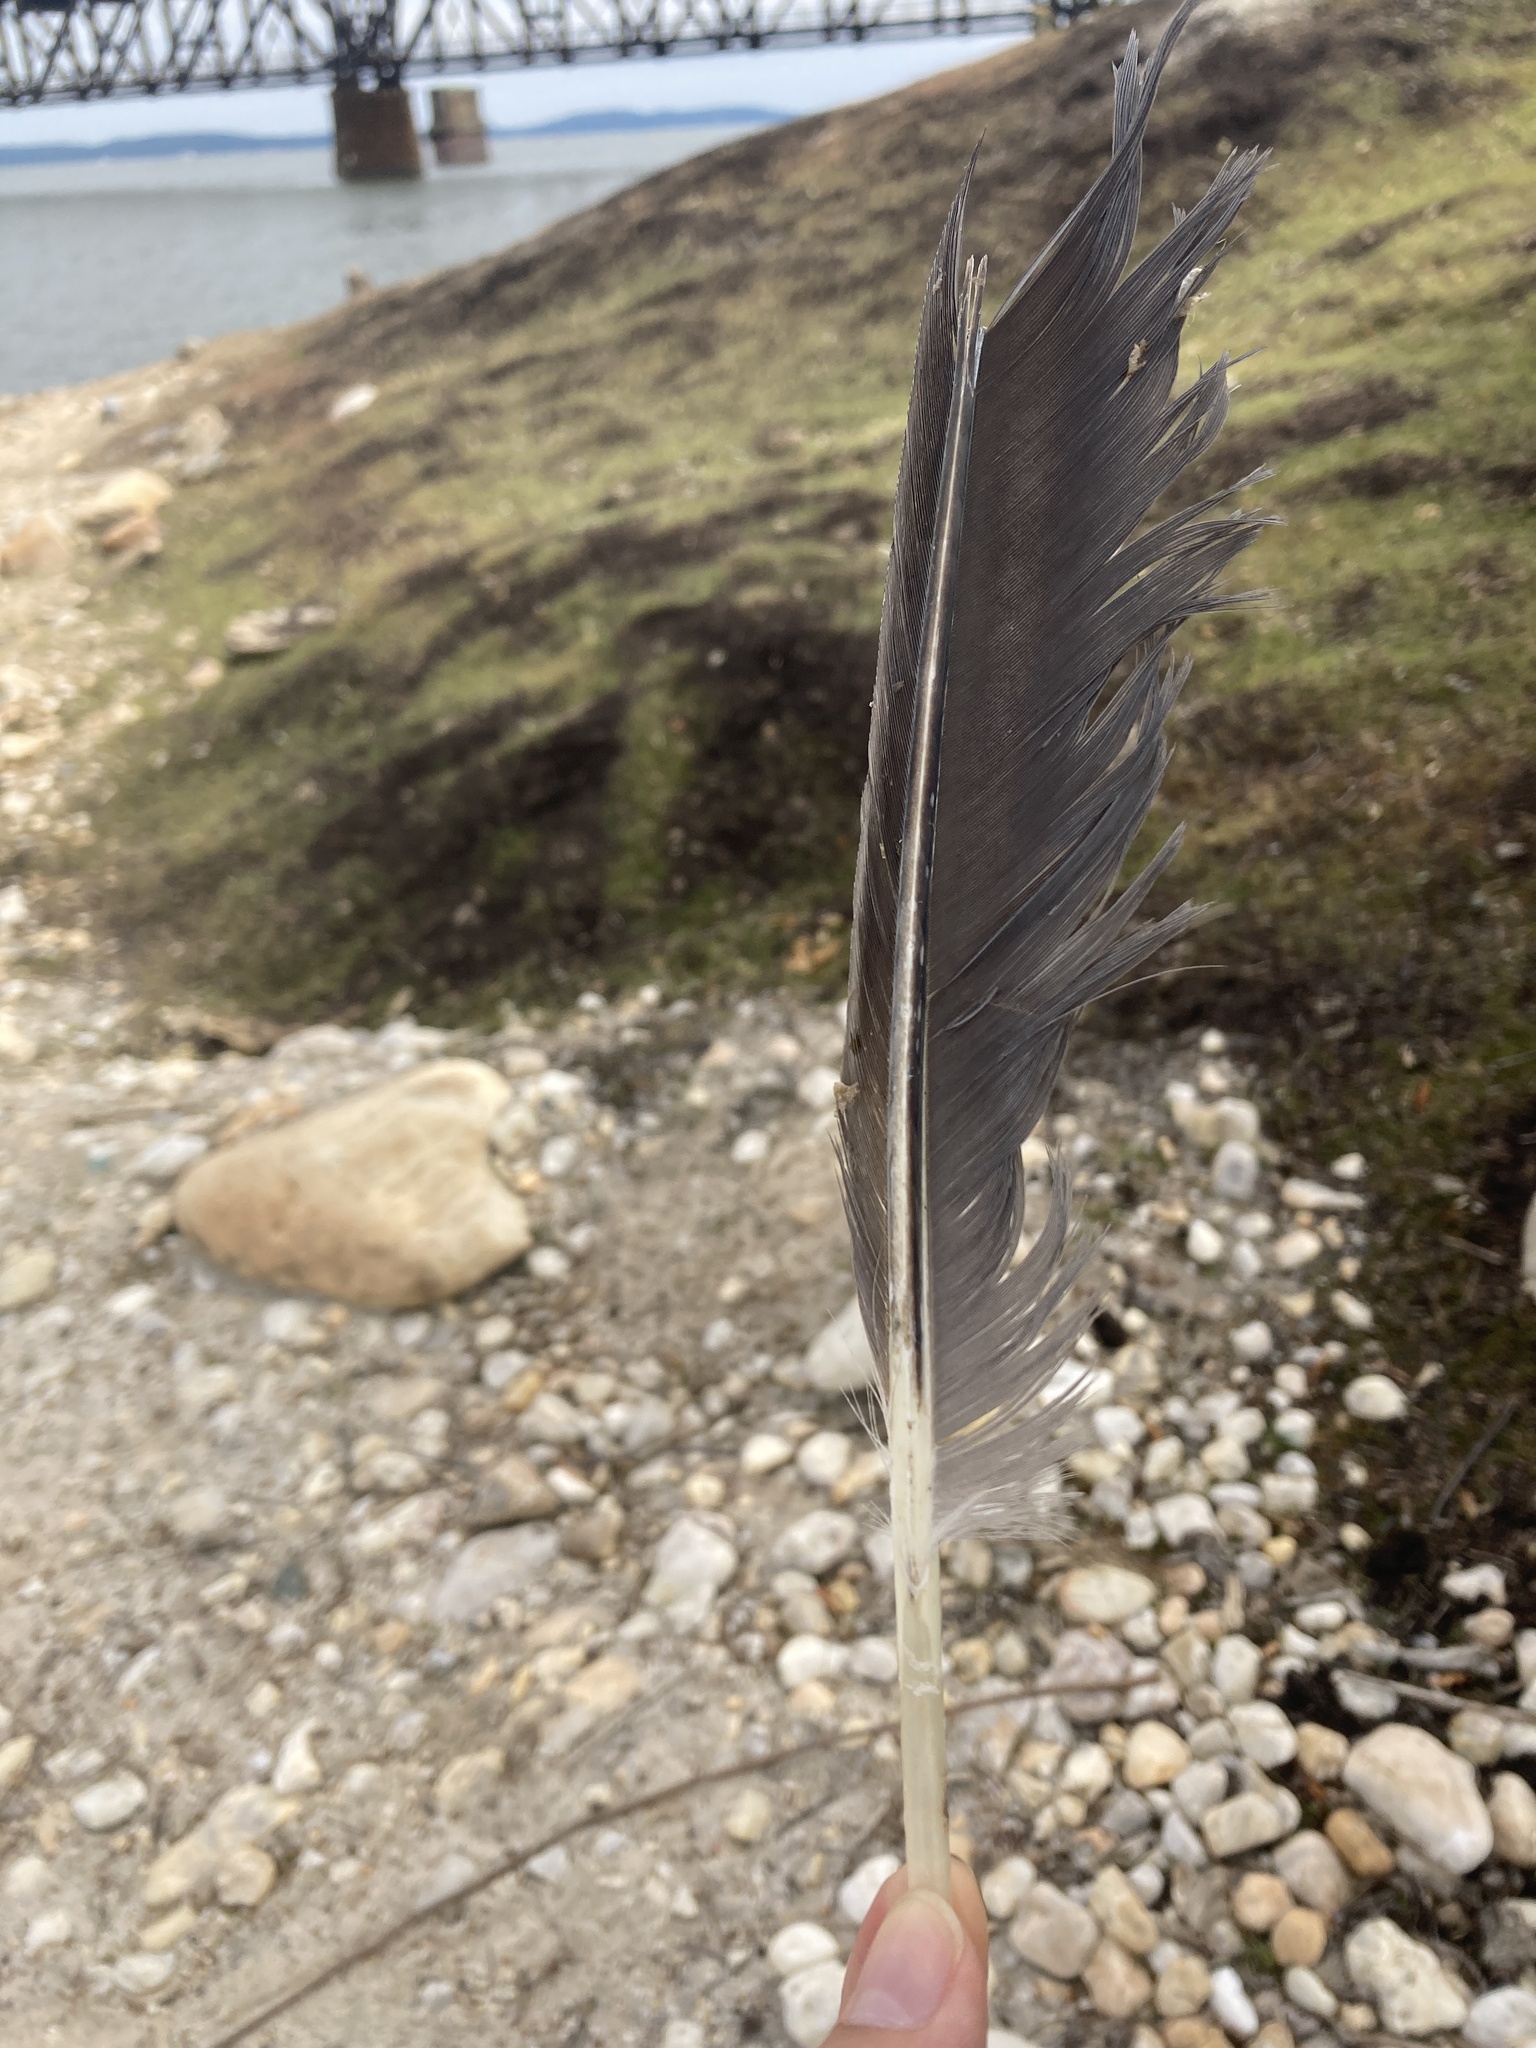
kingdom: Animalia
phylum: Chordata
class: Aves
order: Pelecaniformes
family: Ardeidae
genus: Ardea
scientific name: Ardea herodias
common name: Great blue heron
